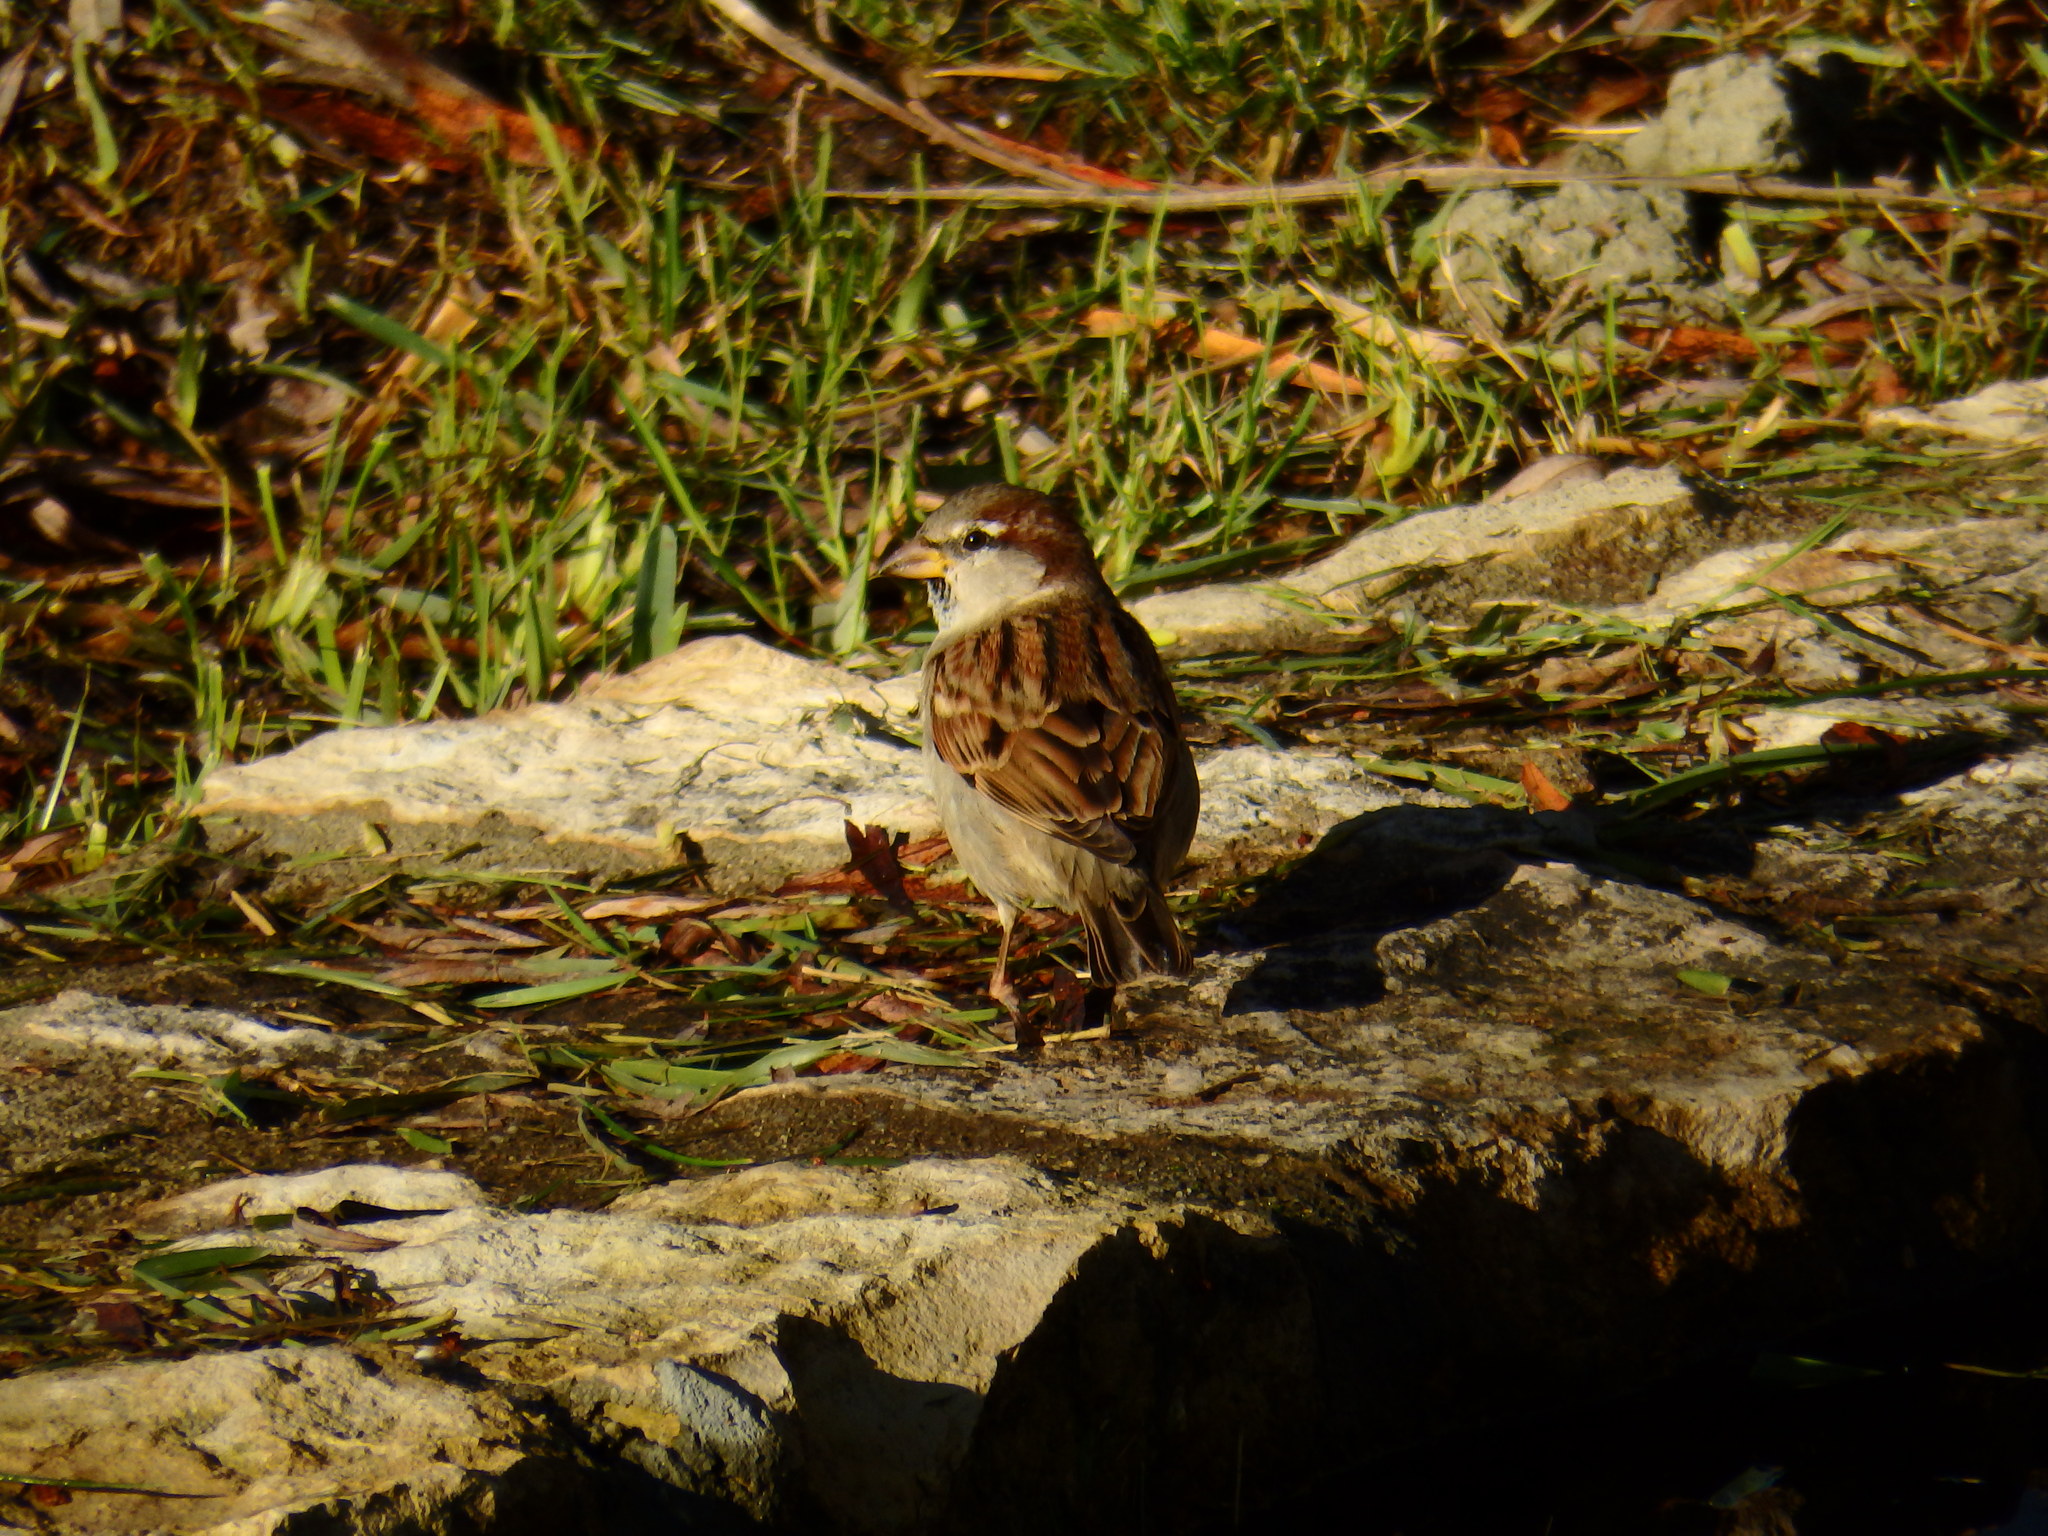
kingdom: Animalia
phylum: Chordata
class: Aves
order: Passeriformes
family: Passeridae
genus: Passer
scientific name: Passer domesticus
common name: House sparrow
